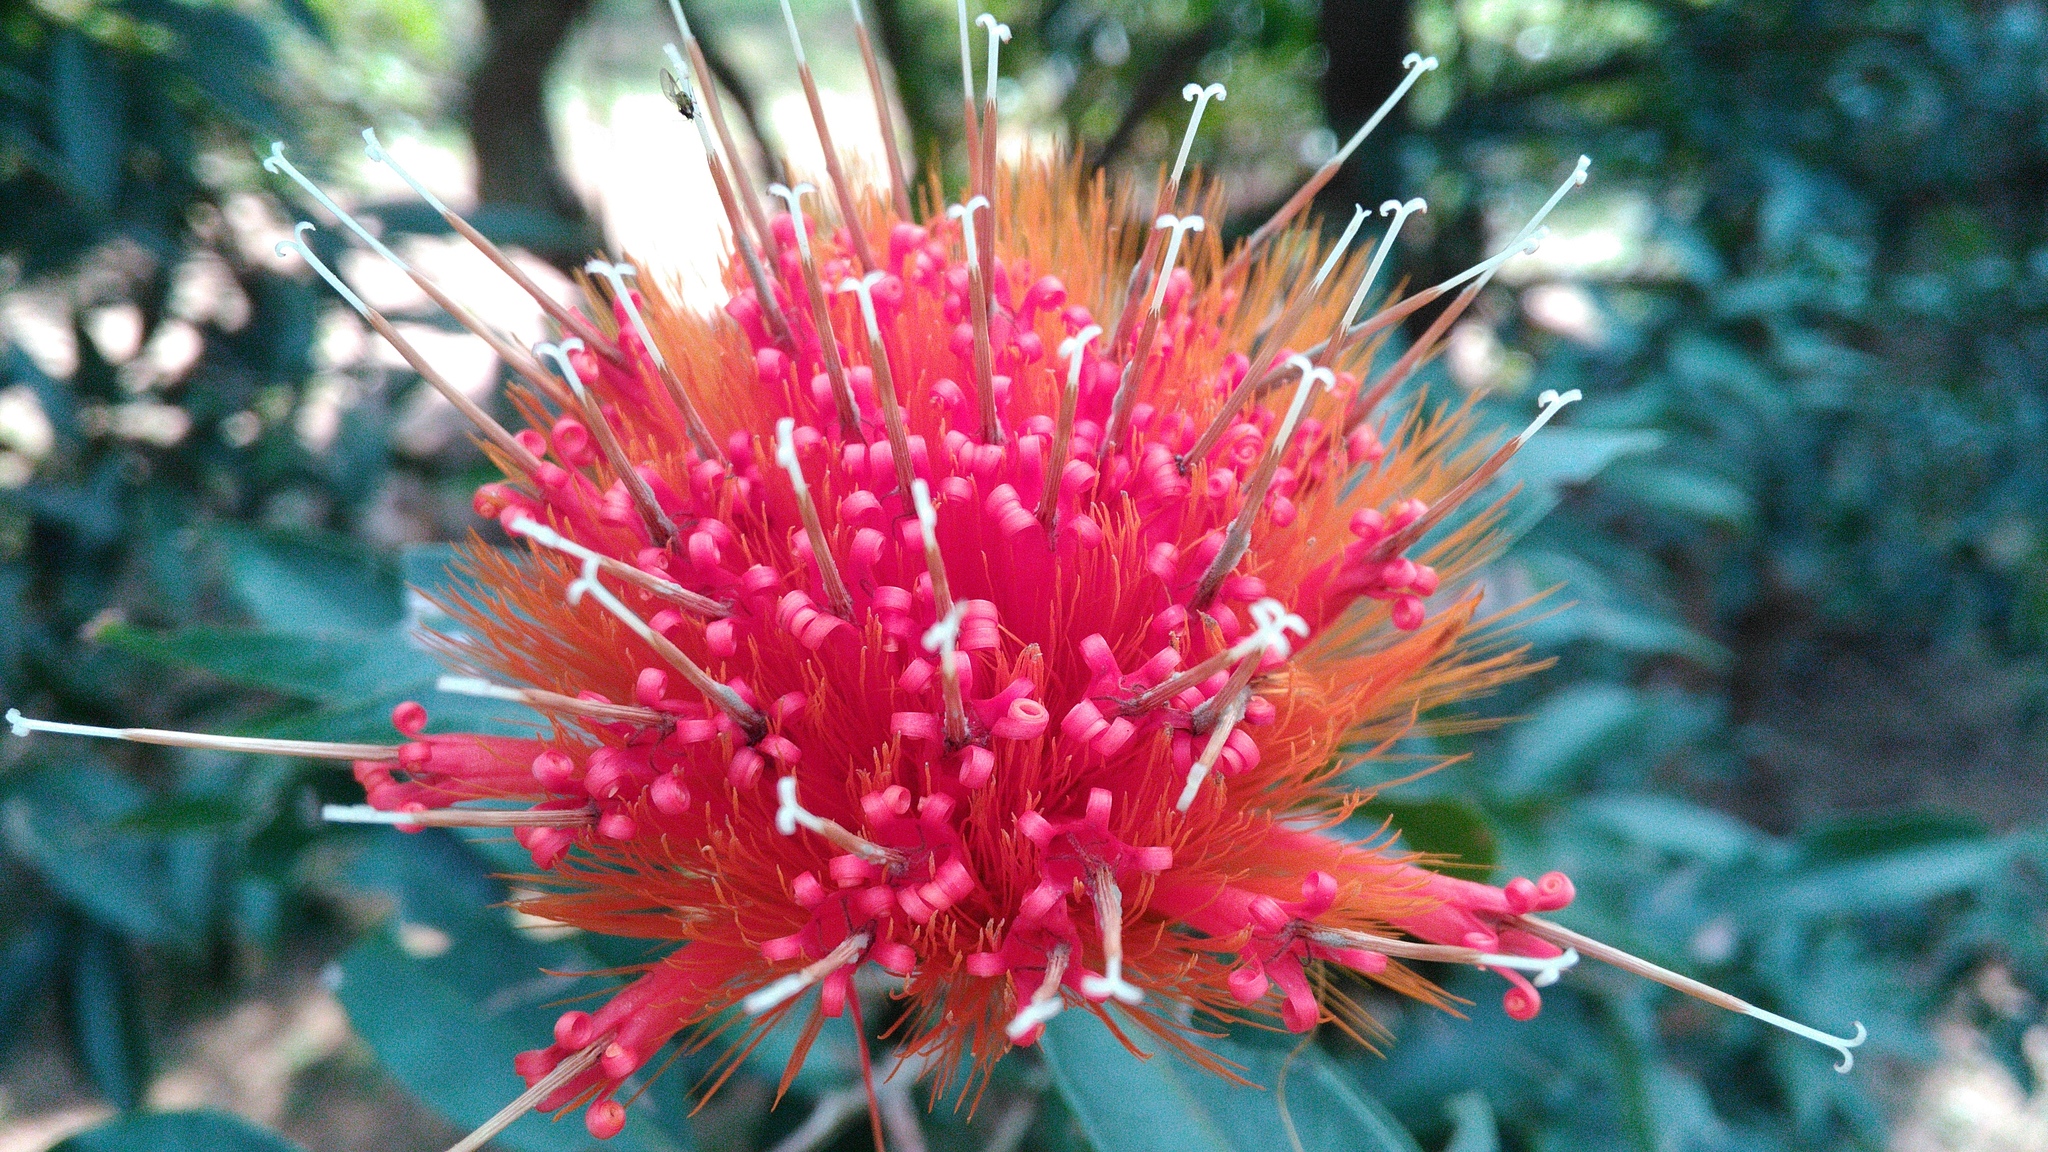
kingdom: Plantae
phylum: Tracheophyta
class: Magnoliopsida
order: Asterales
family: Asteraceae
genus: Stifftia
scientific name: Stifftia chrysantha
